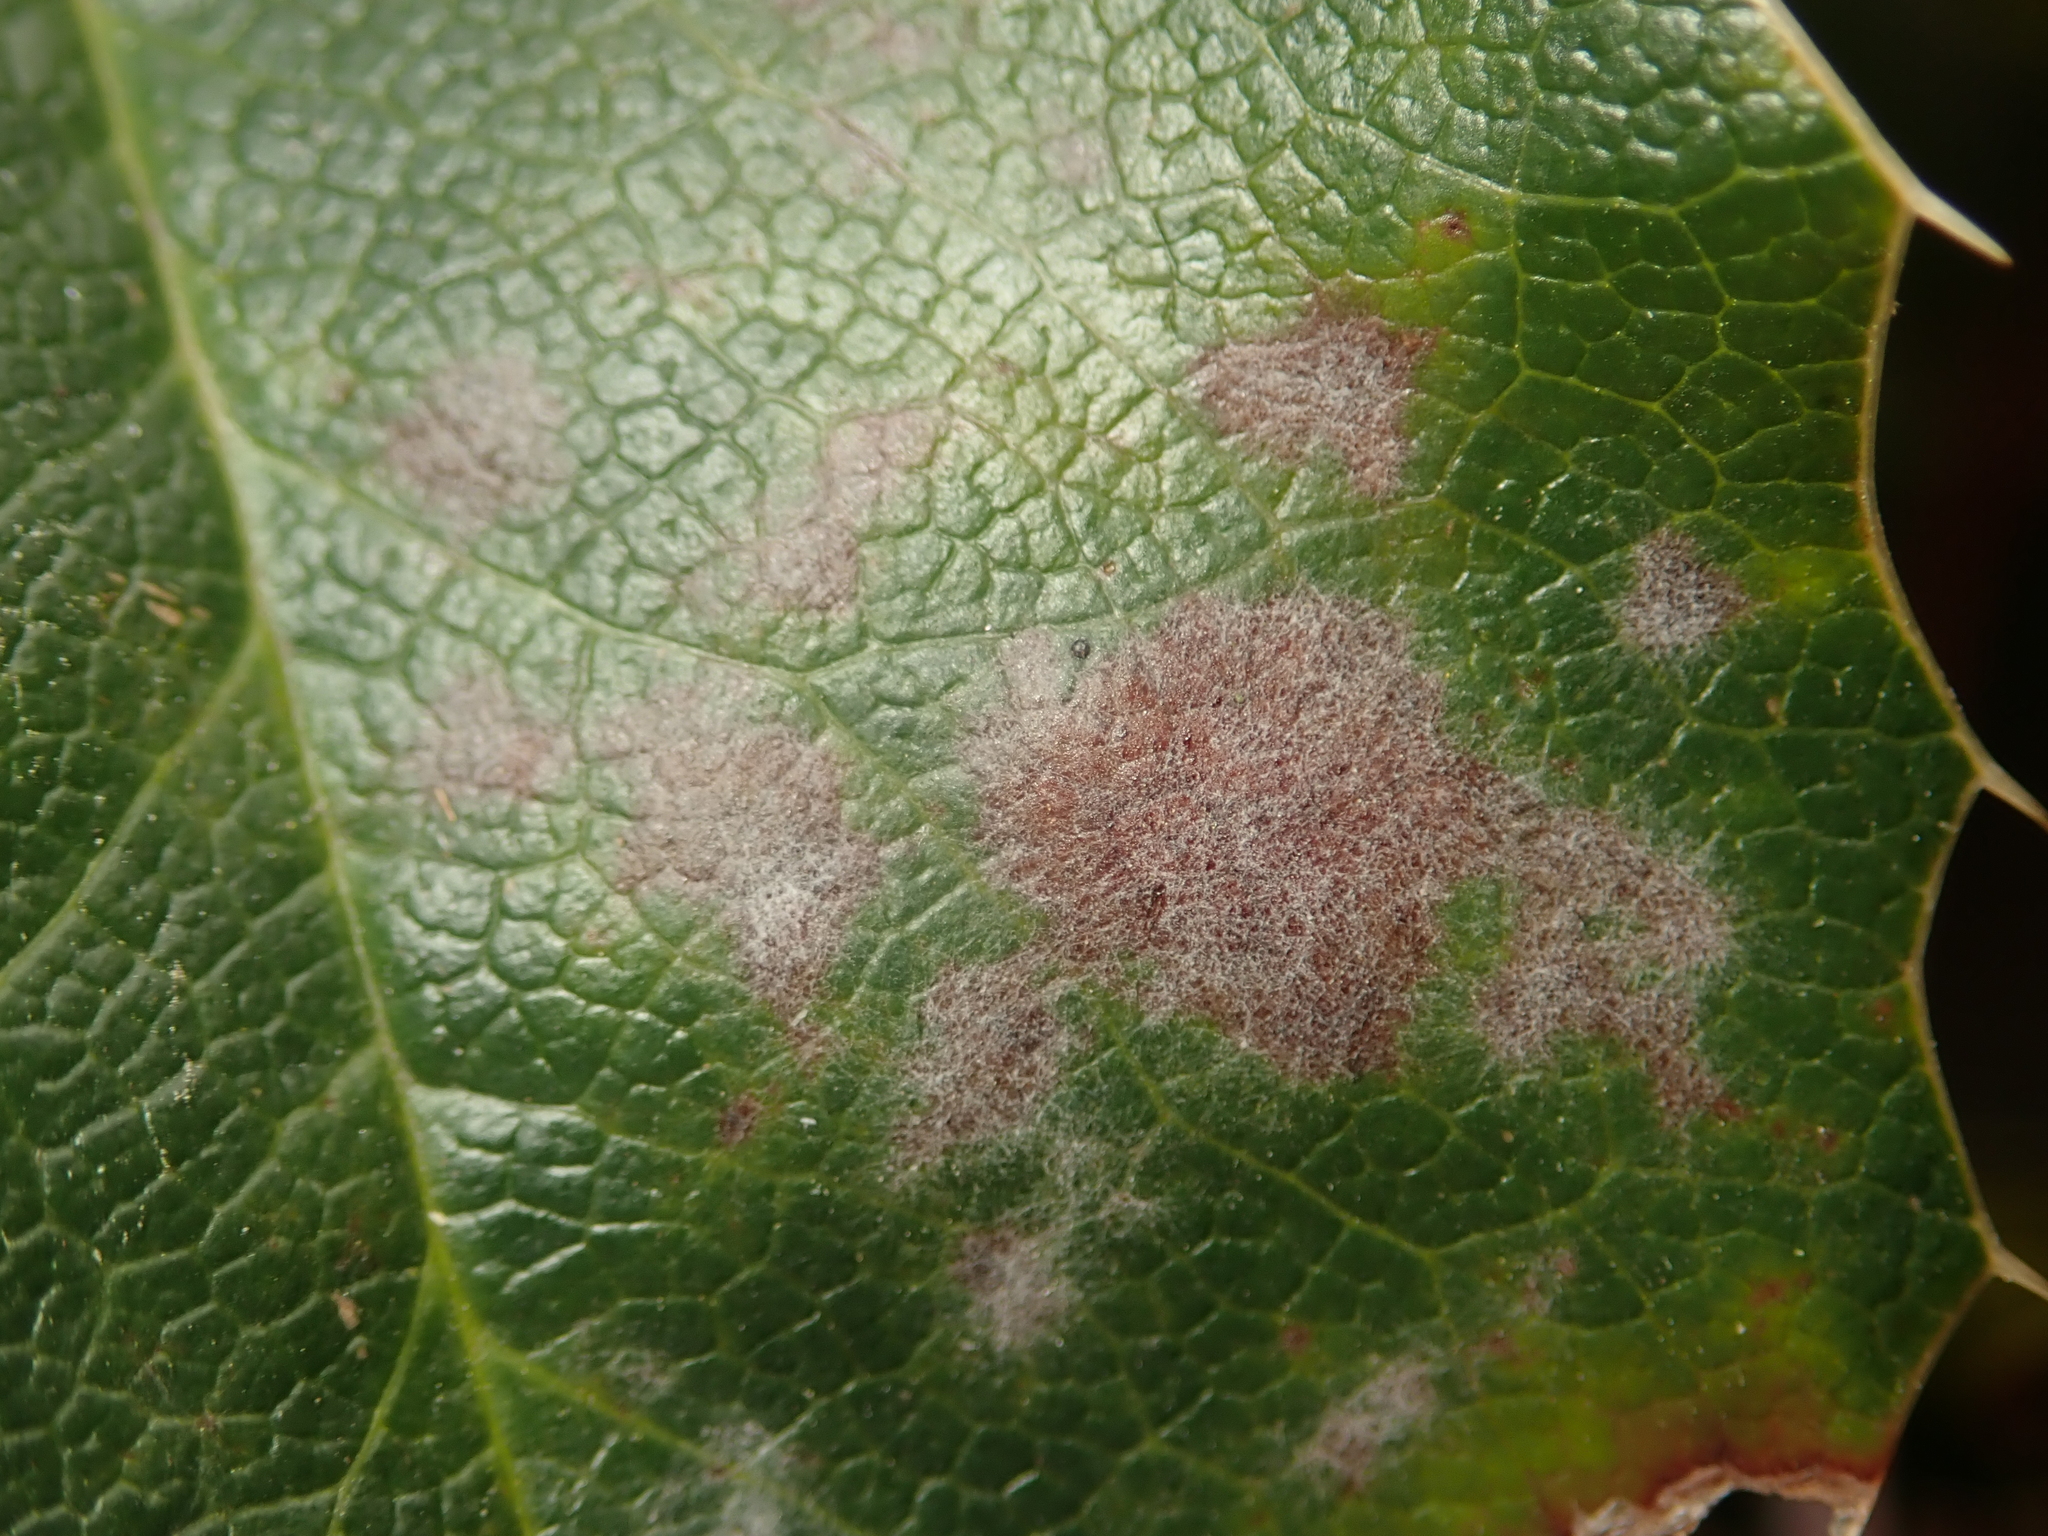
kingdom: Fungi
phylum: Ascomycota
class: Leotiomycetes
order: Helotiales
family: Erysiphaceae
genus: Erysiphe
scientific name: Erysiphe berberidis
